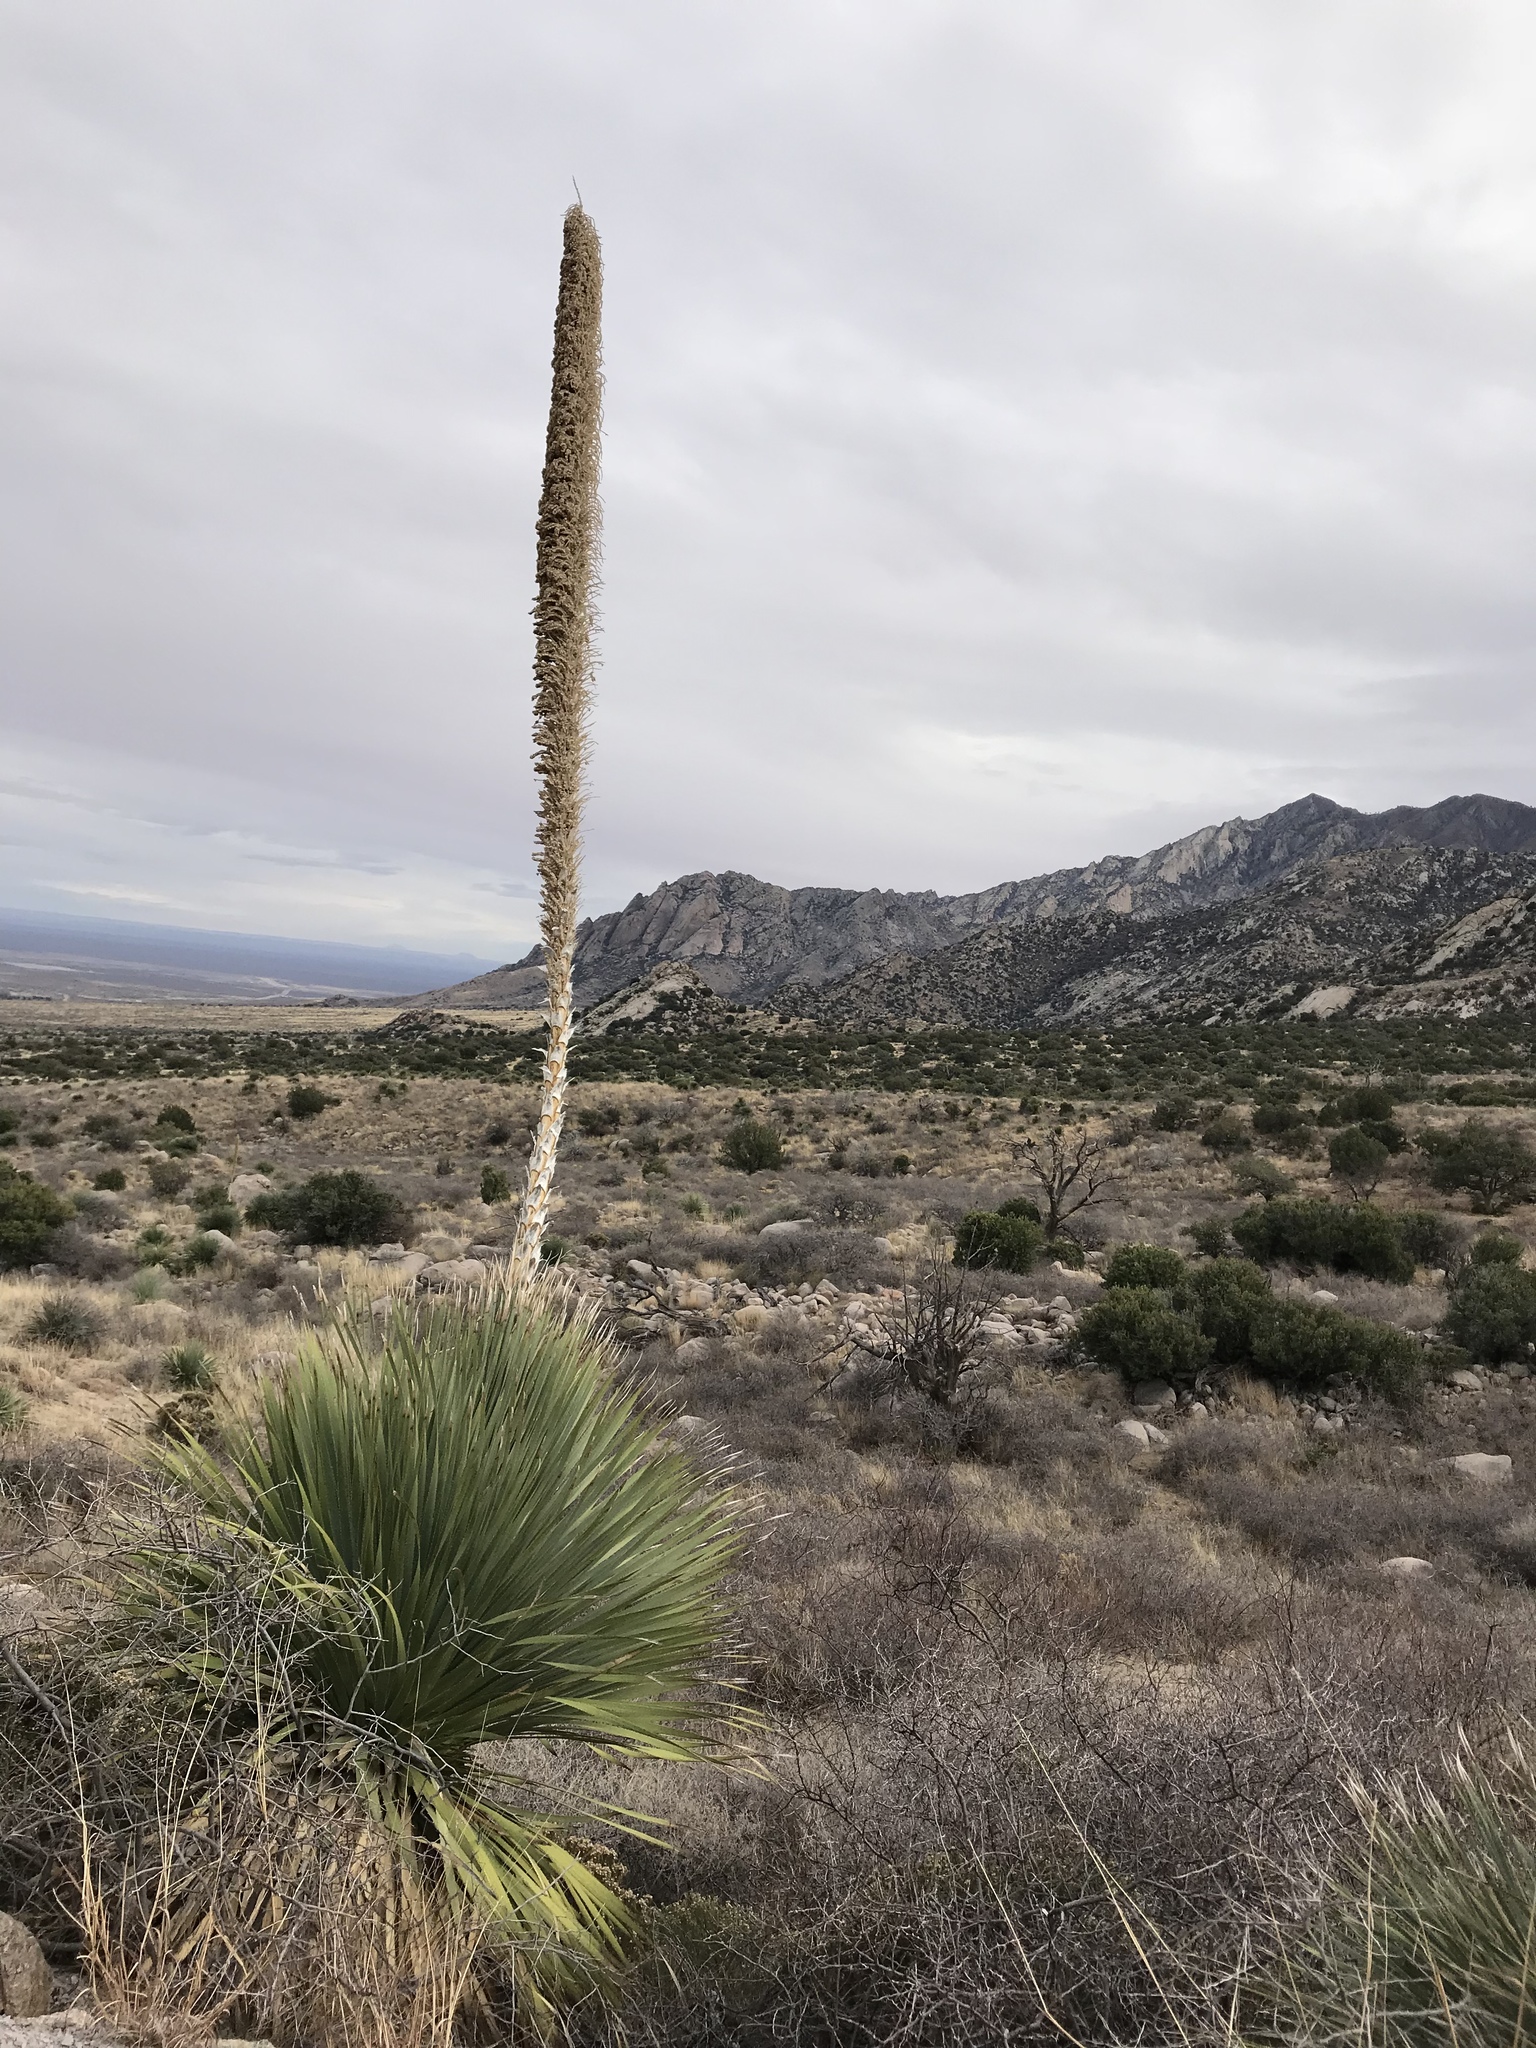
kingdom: Plantae
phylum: Tracheophyta
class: Liliopsida
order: Asparagales
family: Asparagaceae
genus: Dasylirion
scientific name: Dasylirion wheeleri
